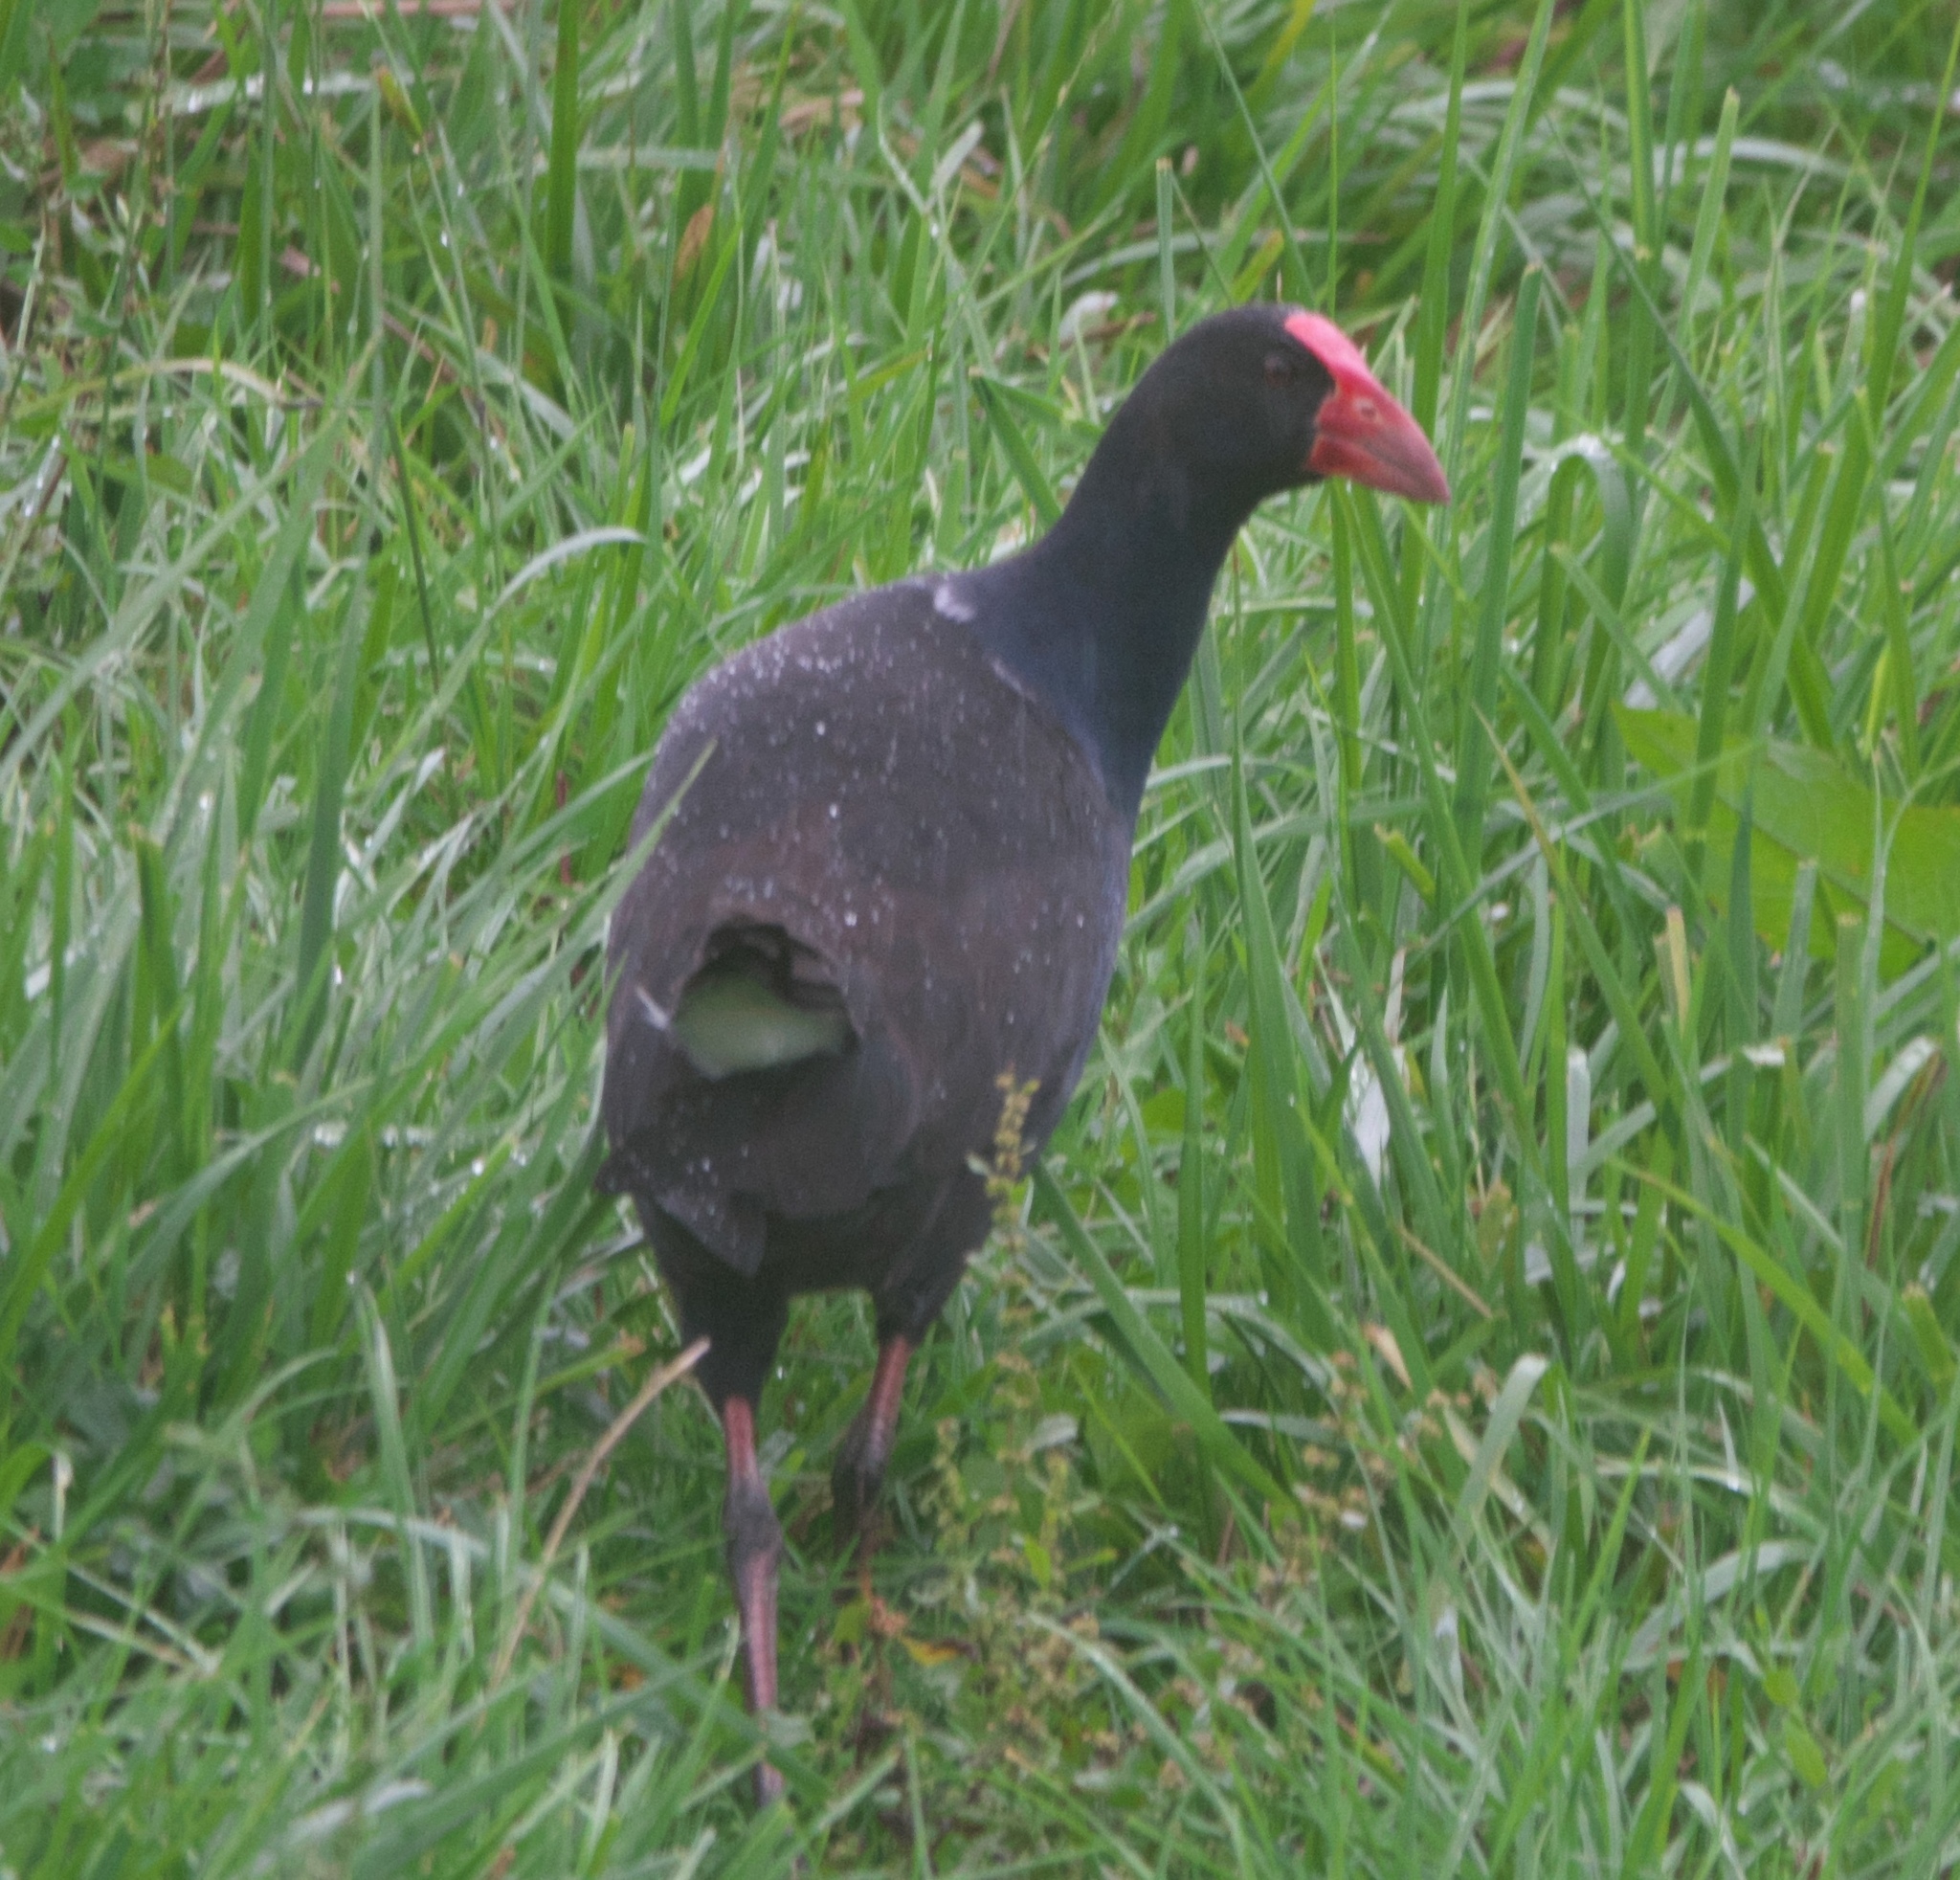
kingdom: Animalia
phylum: Chordata
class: Aves
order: Gruiformes
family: Rallidae
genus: Porphyrio
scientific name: Porphyrio melanotus
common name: Australasian swamphen
